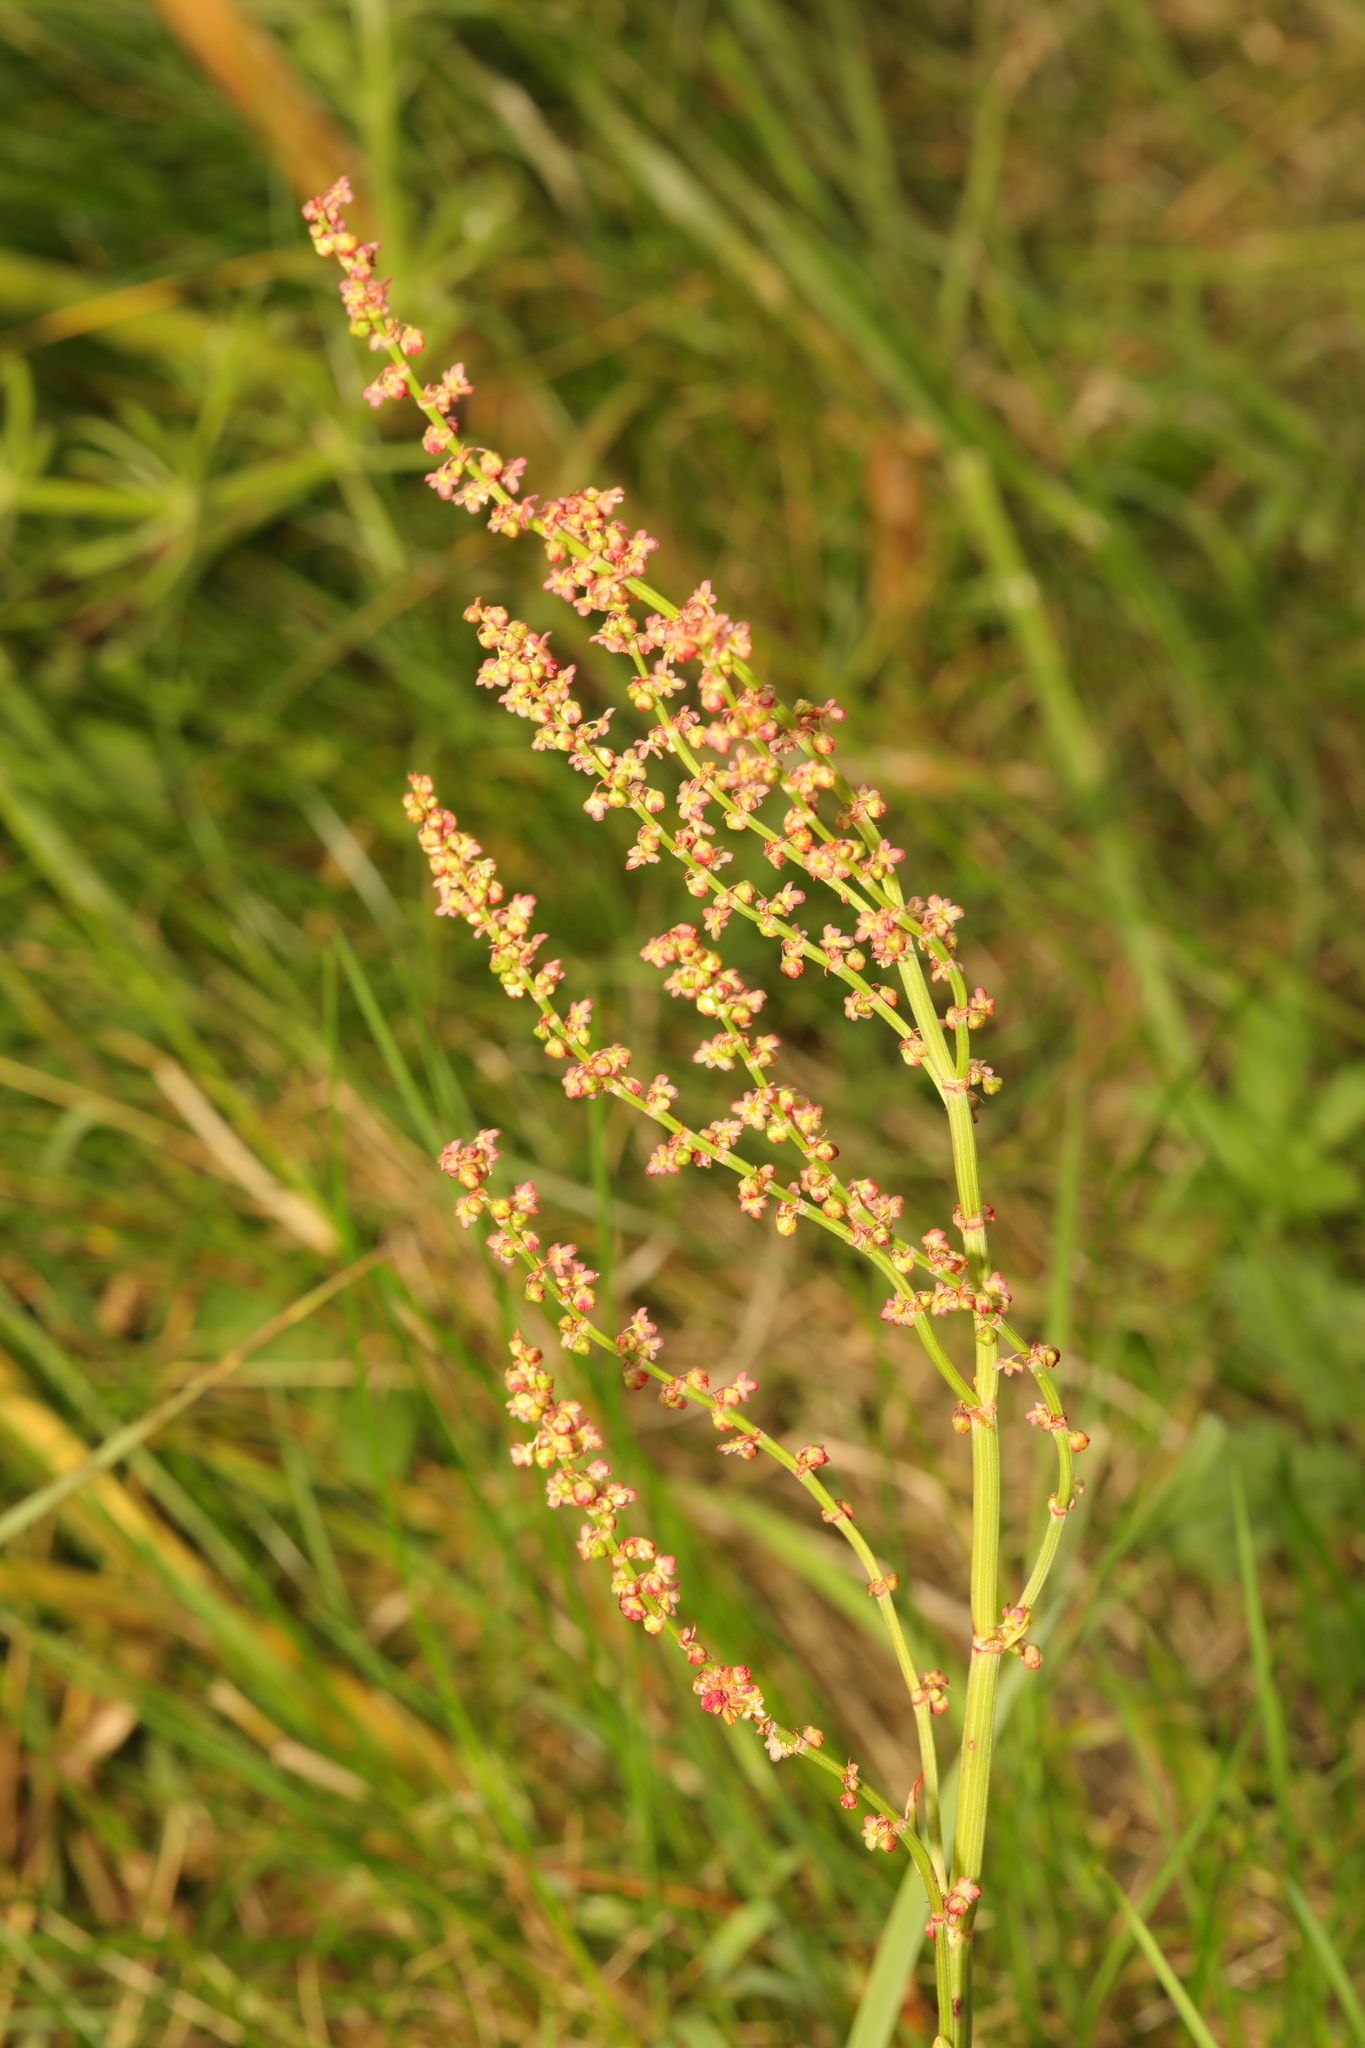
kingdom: Plantae
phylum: Tracheophyta
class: Magnoliopsida
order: Caryophyllales
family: Polygonaceae
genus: Rumex
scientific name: Rumex acetosa
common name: Garden sorrel
